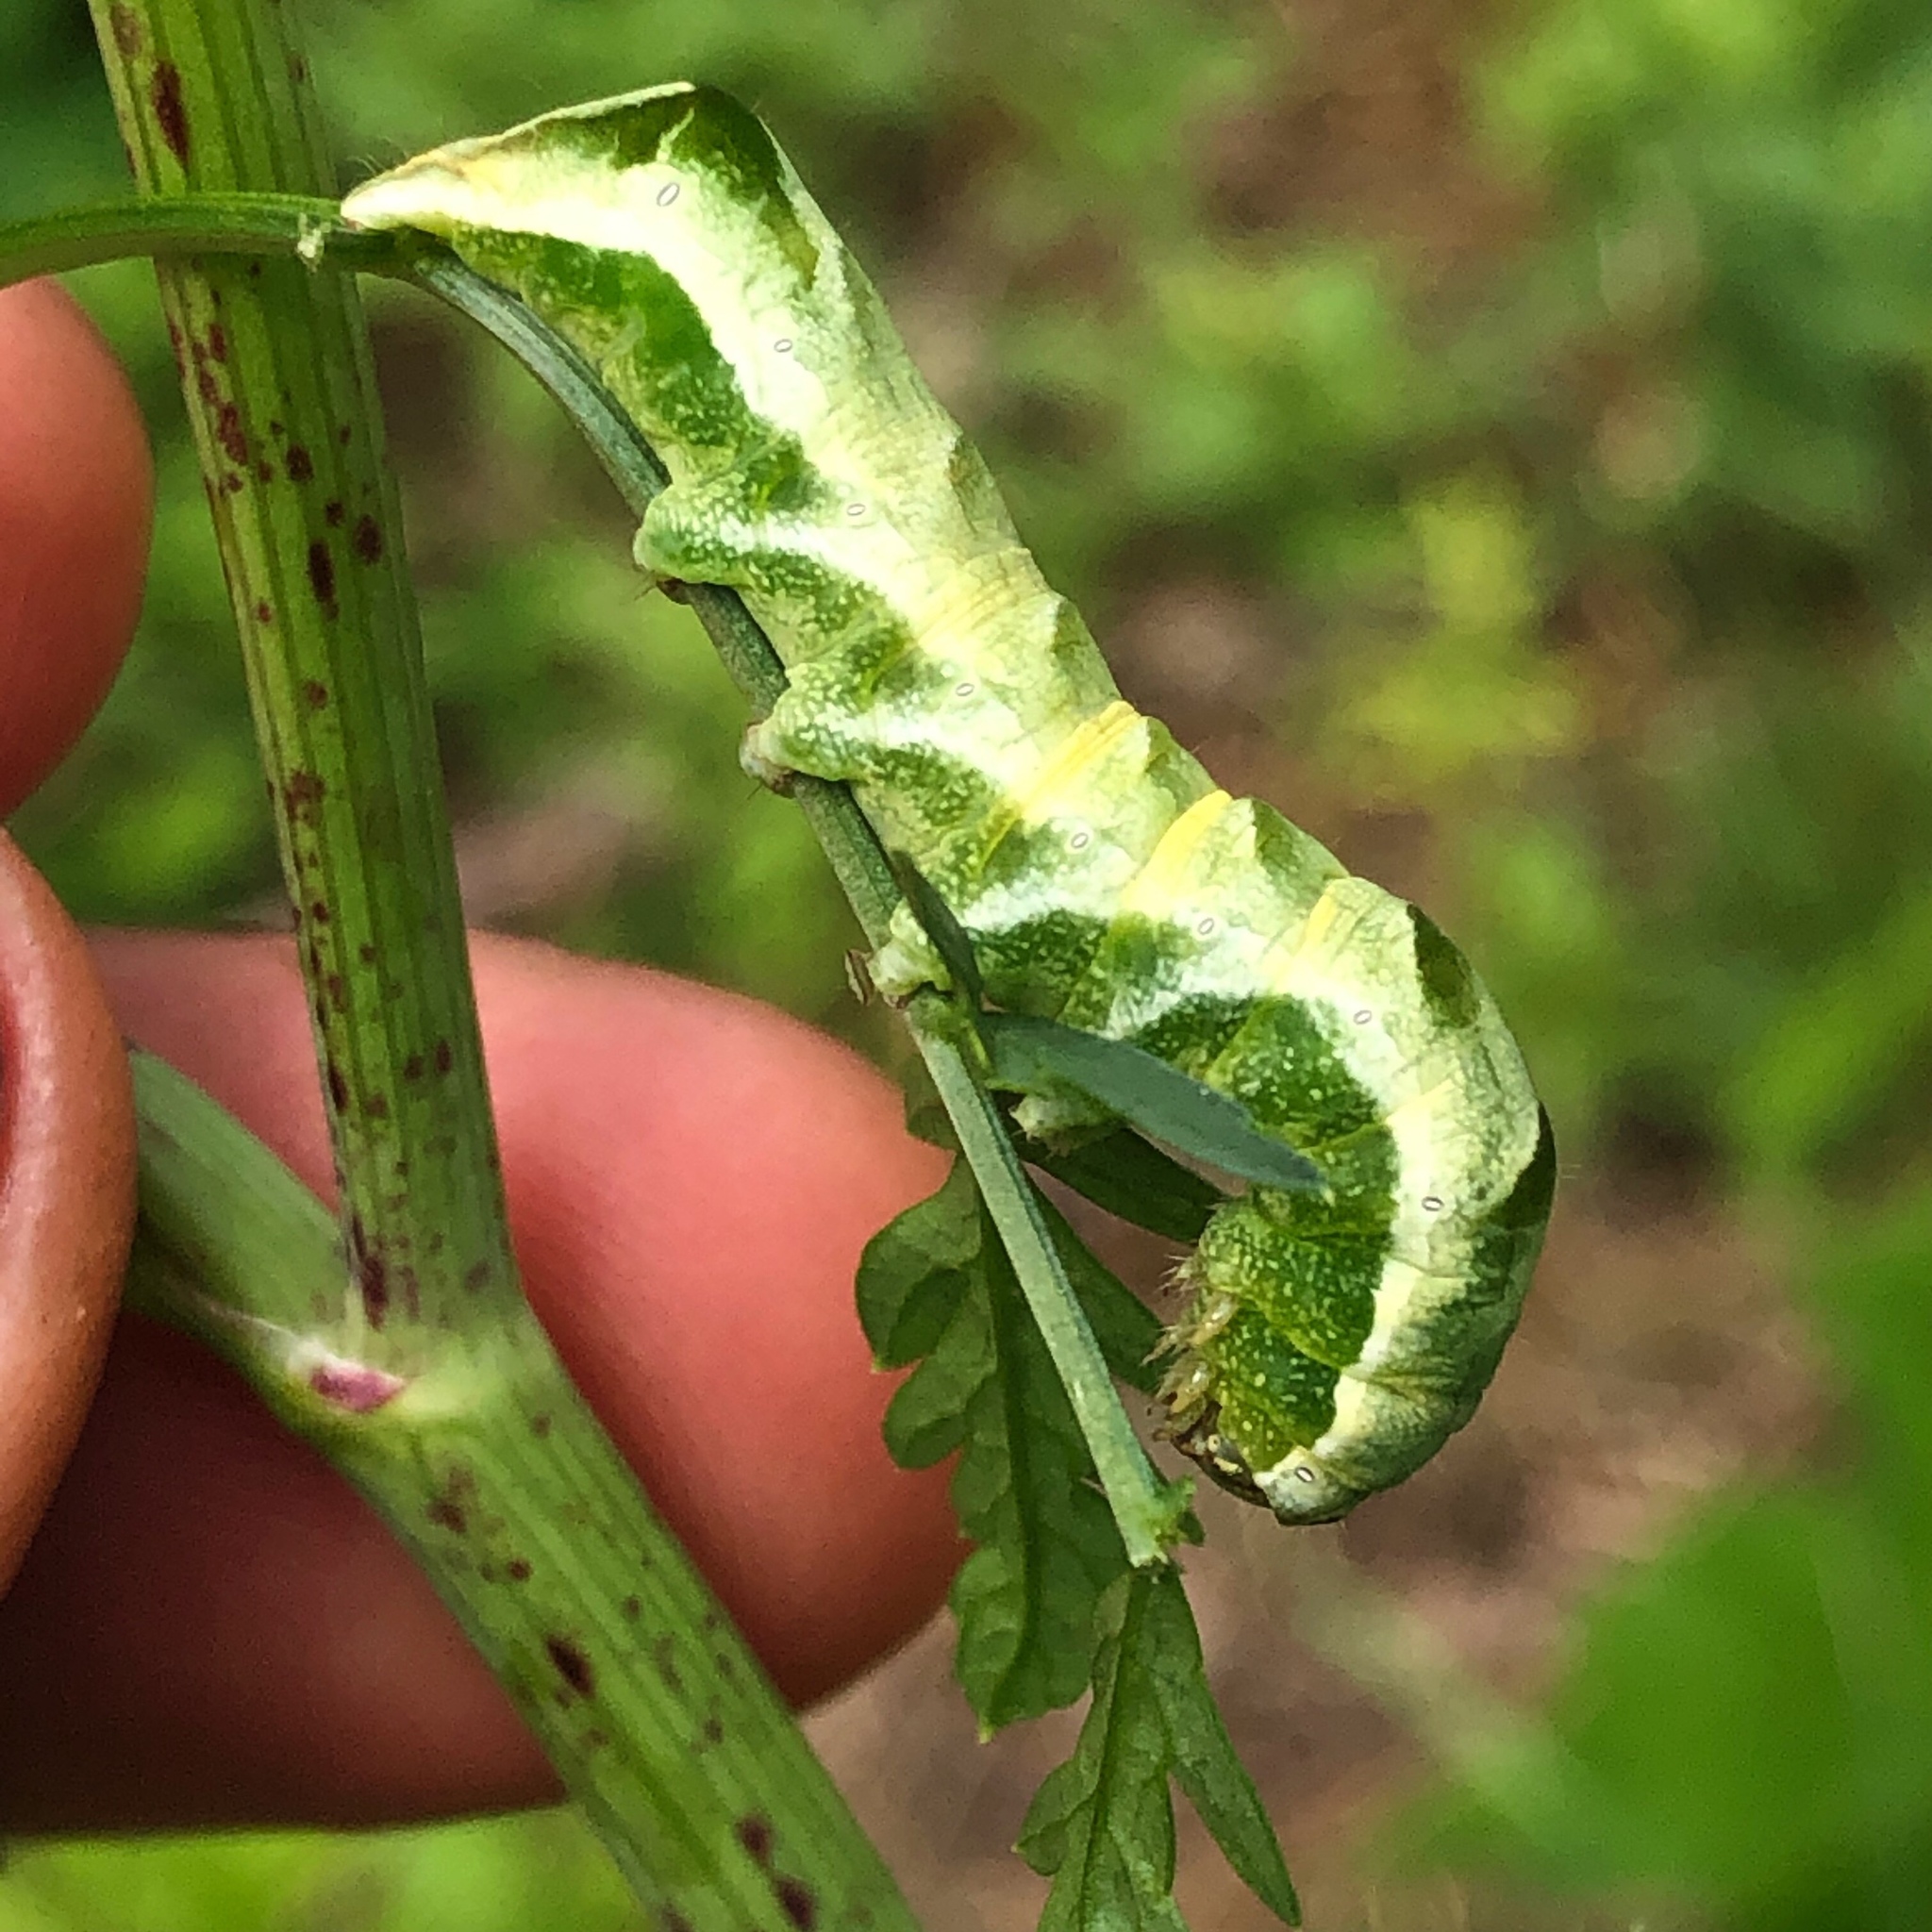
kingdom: Animalia
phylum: Arthropoda
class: Insecta
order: Lepidoptera
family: Noctuidae
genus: Melanchra
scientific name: Melanchra adjuncta
